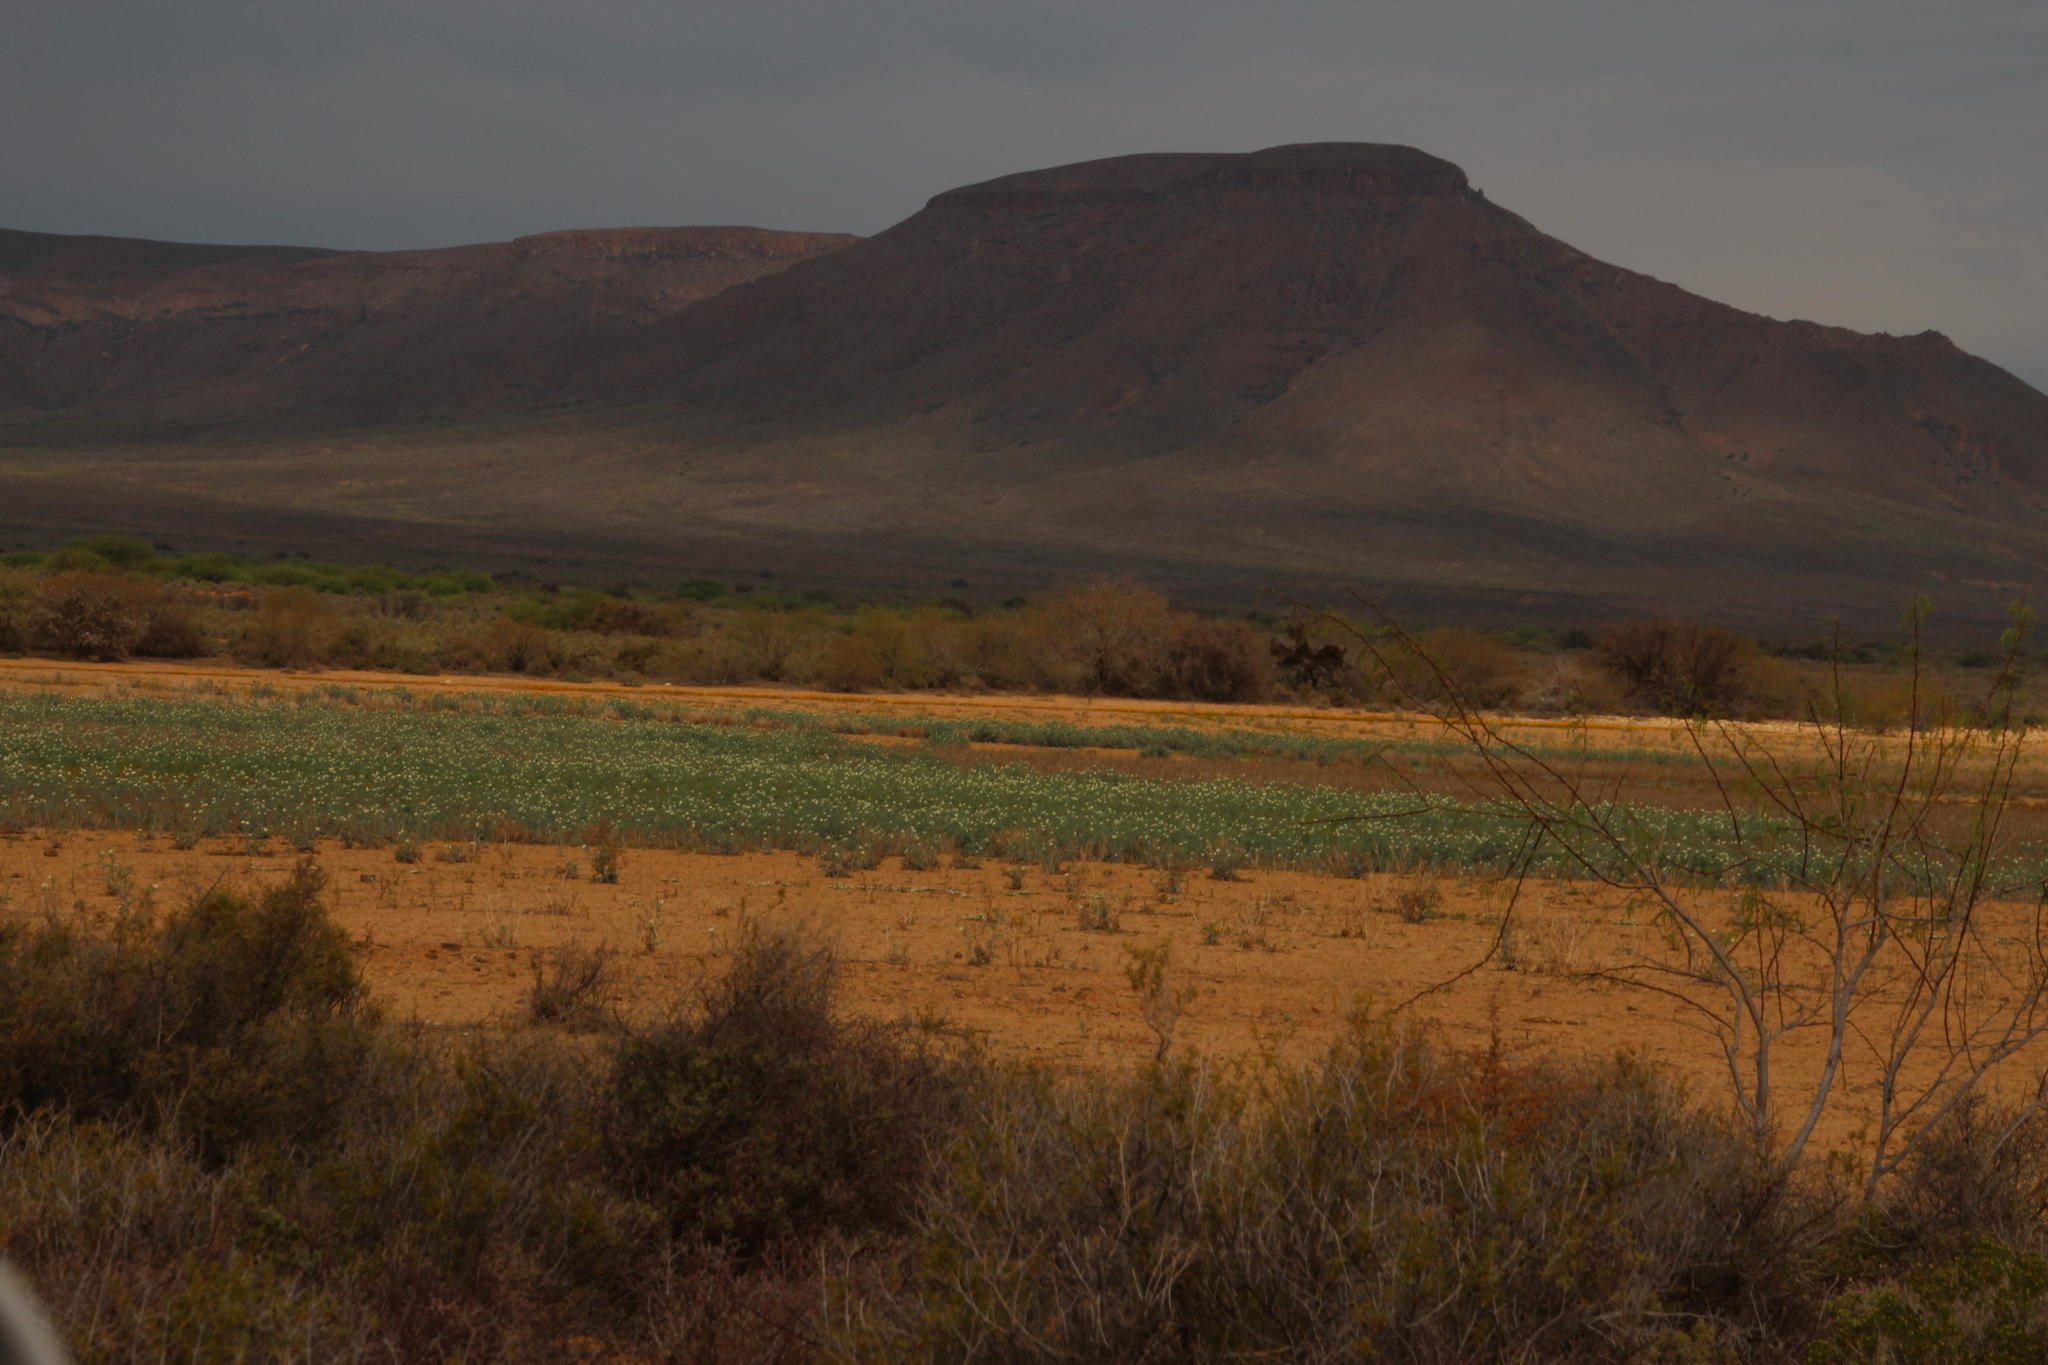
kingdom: Plantae
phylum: Tracheophyta
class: Magnoliopsida
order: Ranunculales
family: Papaveraceae
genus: Argemone
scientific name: Argemone ochroleuca
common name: White-flower mexican-poppy
